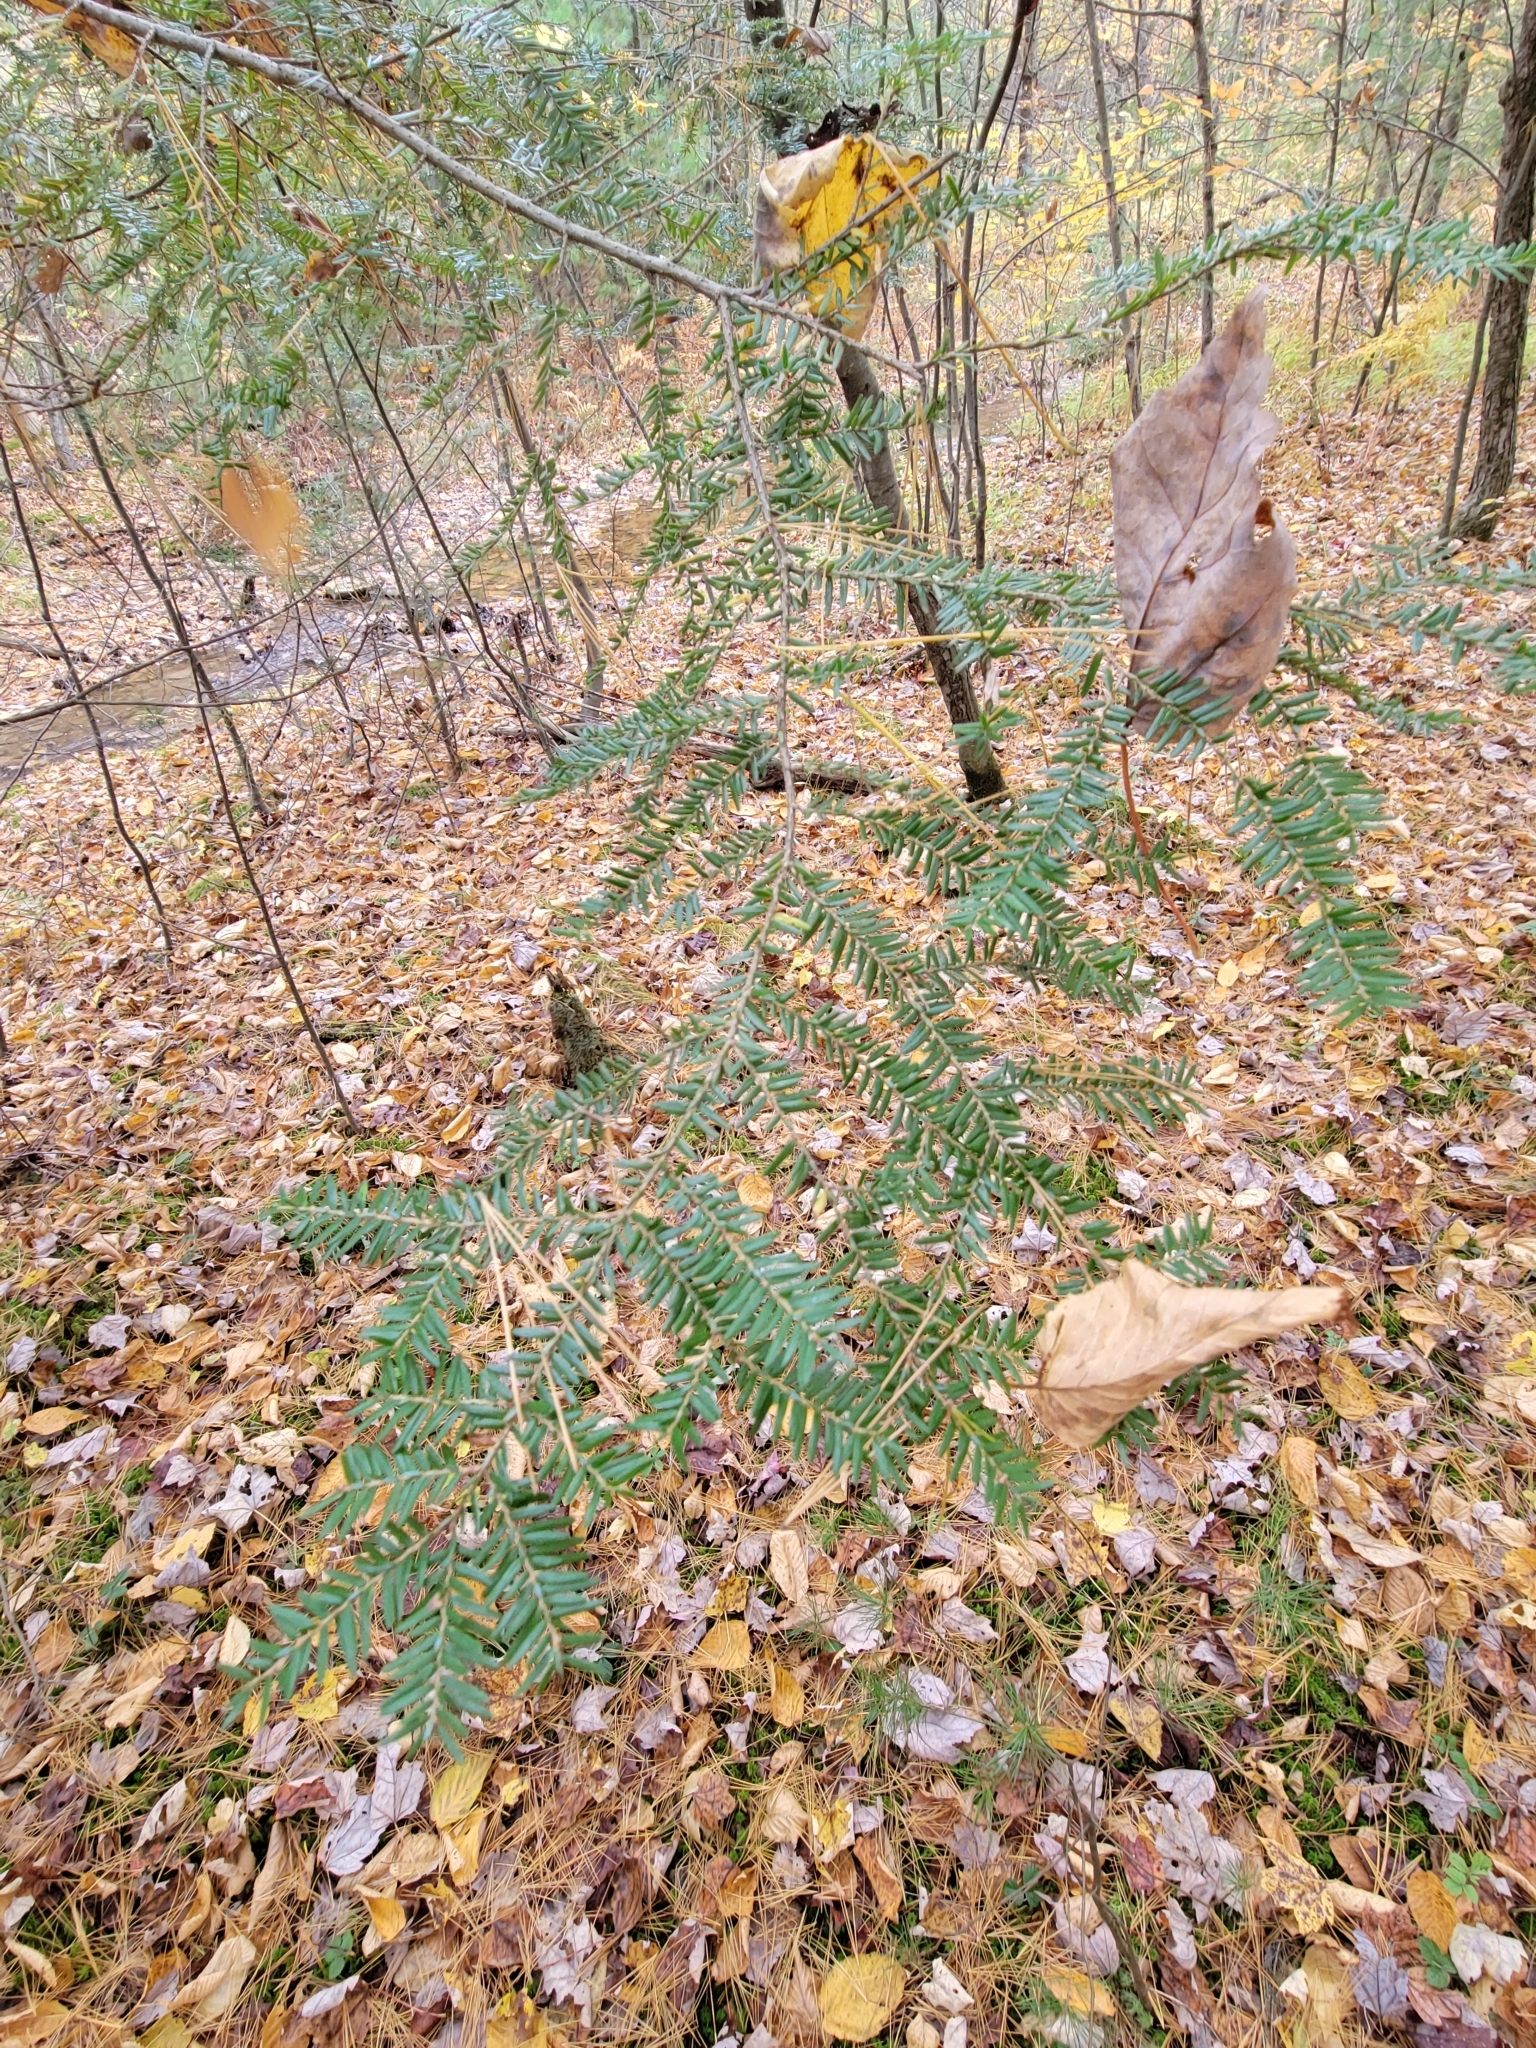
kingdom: Plantae
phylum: Tracheophyta
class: Pinopsida
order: Pinales
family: Pinaceae
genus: Tsuga
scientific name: Tsuga canadensis
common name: Eastern hemlock
